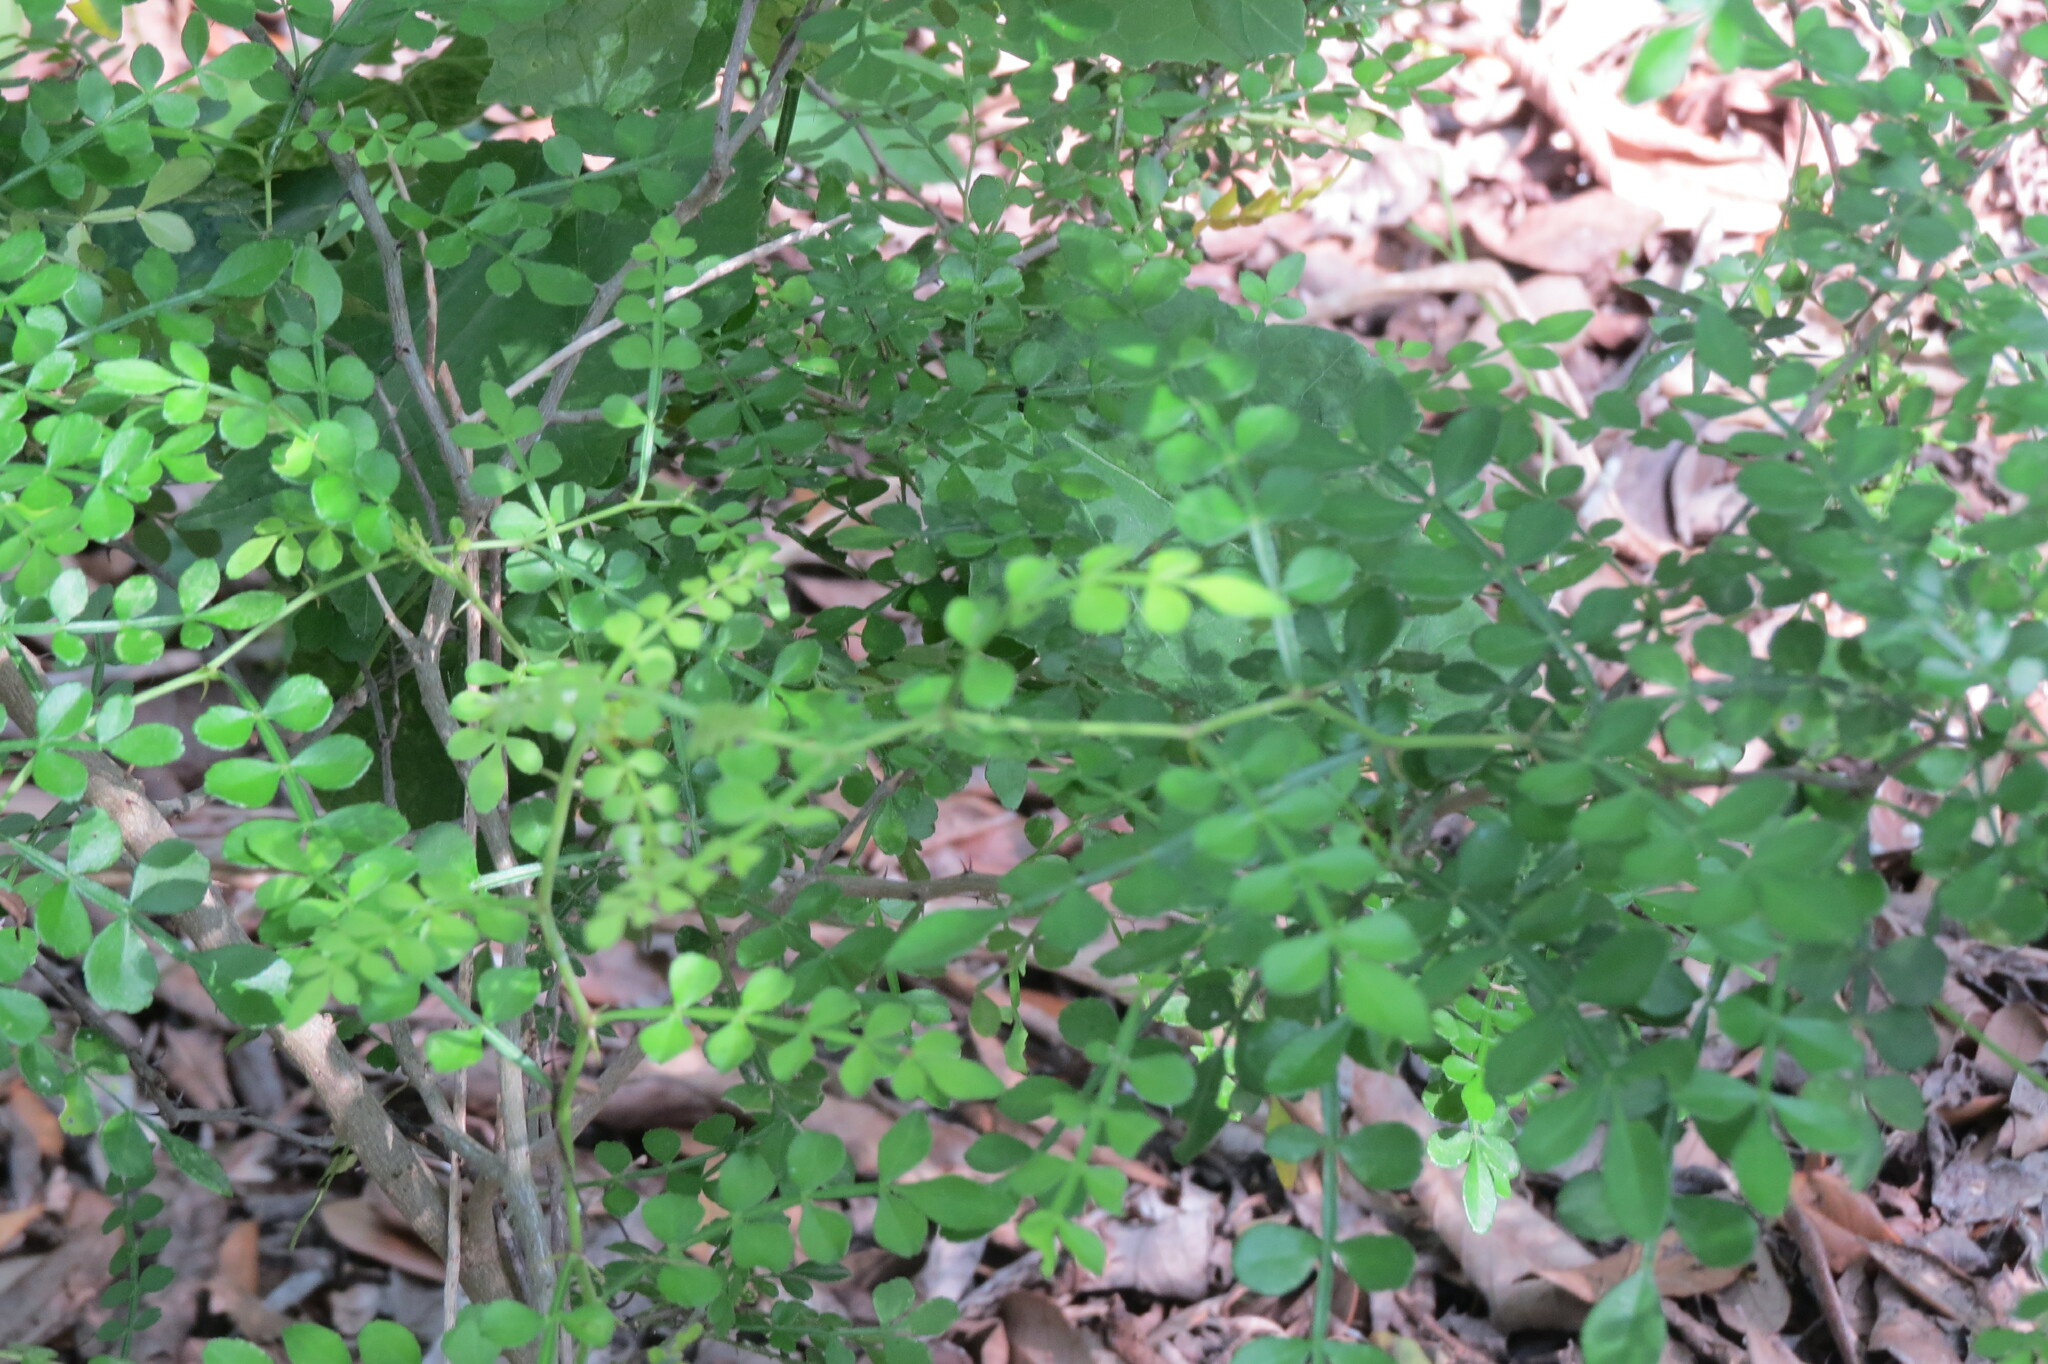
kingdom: Plantae
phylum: Tracheophyta
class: Magnoliopsida
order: Sapindales
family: Rutaceae
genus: Zanthoxylum
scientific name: Zanthoxylum fagara
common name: Lime prickly-ash
